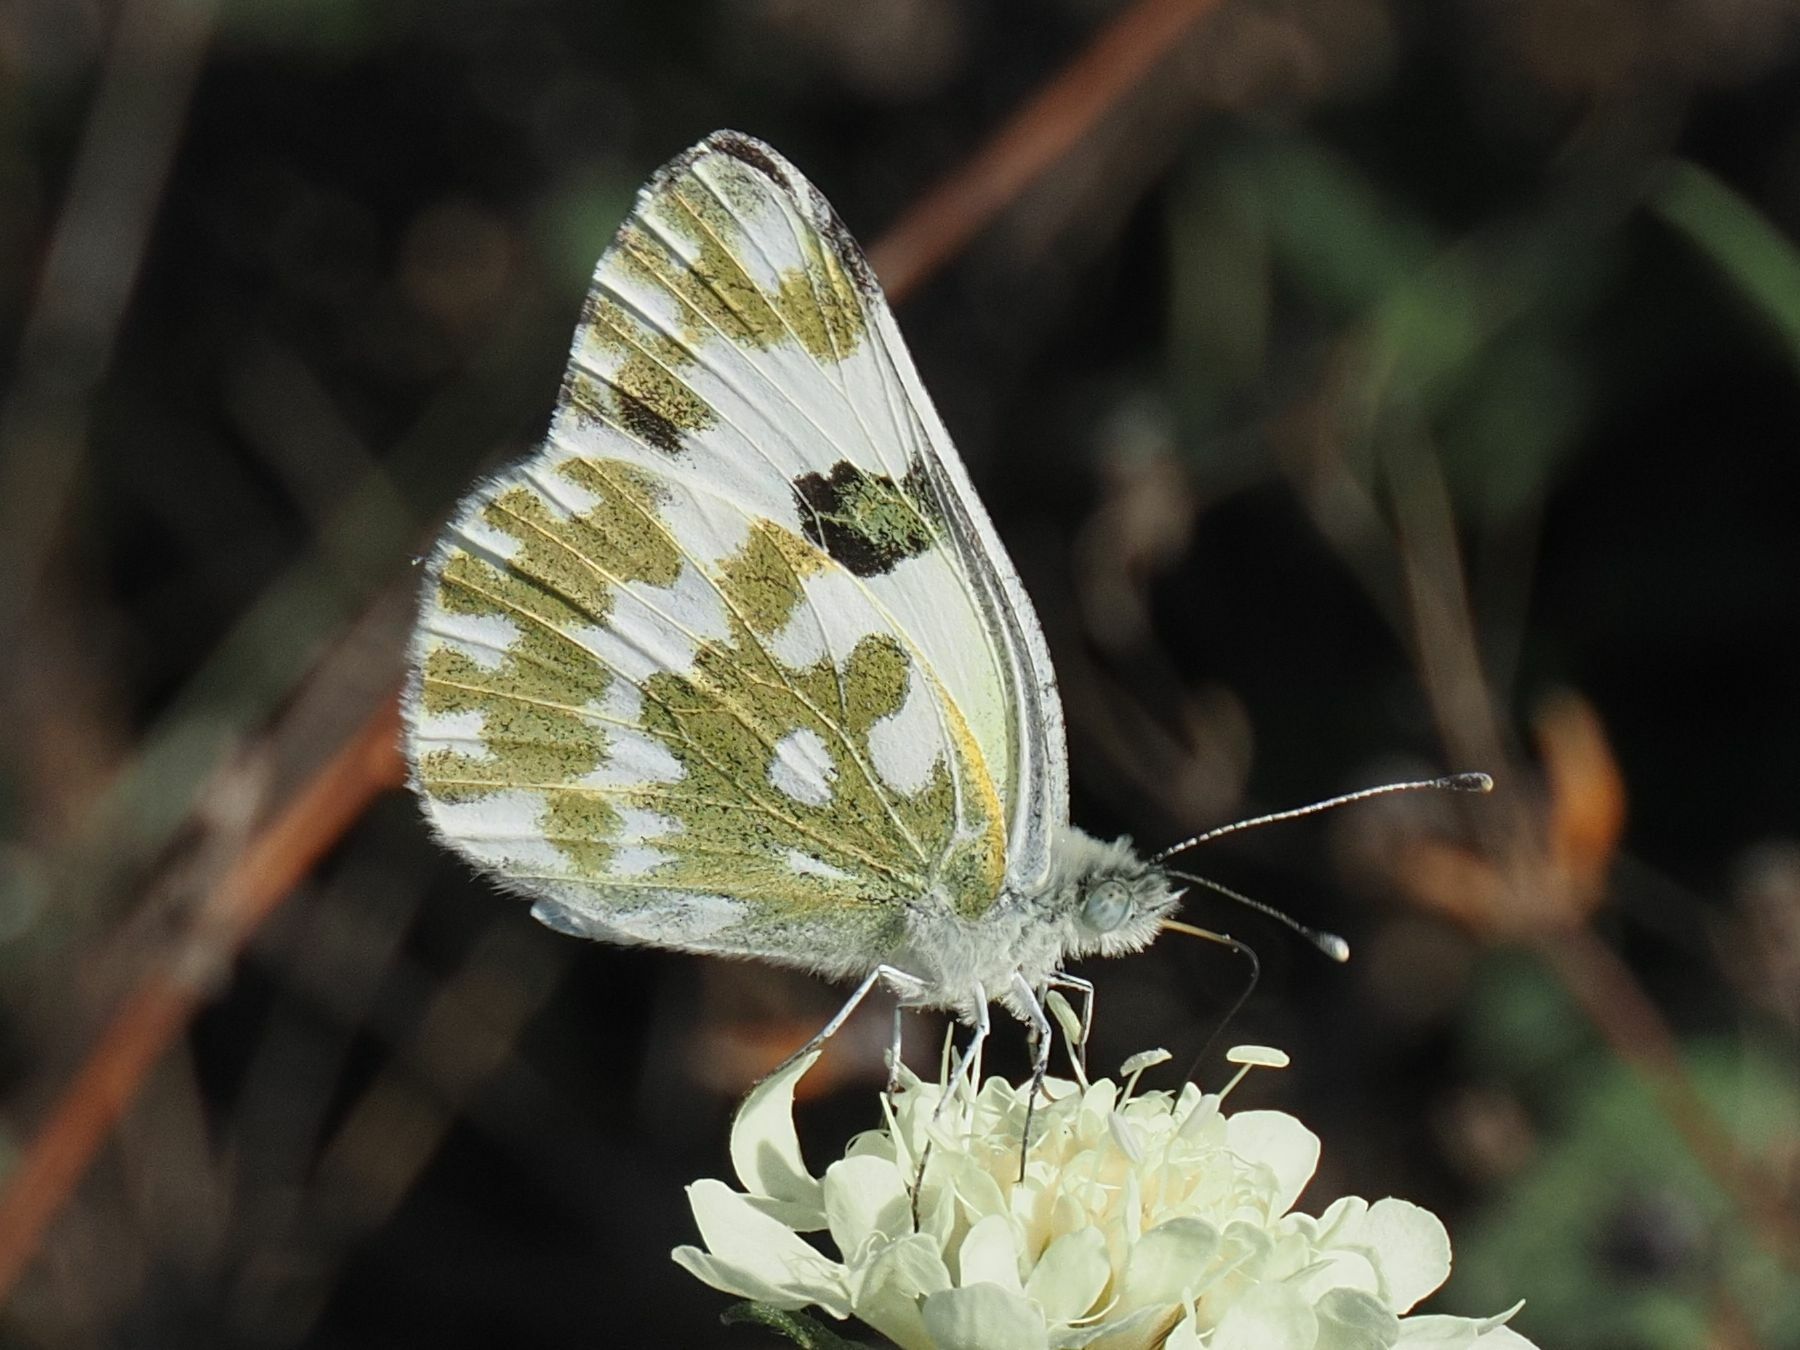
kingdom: Animalia
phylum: Arthropoda
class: Insecta
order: Lepidoptera
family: Pieridae
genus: Pontia
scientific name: Pontia edusa
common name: Eastern bath white
